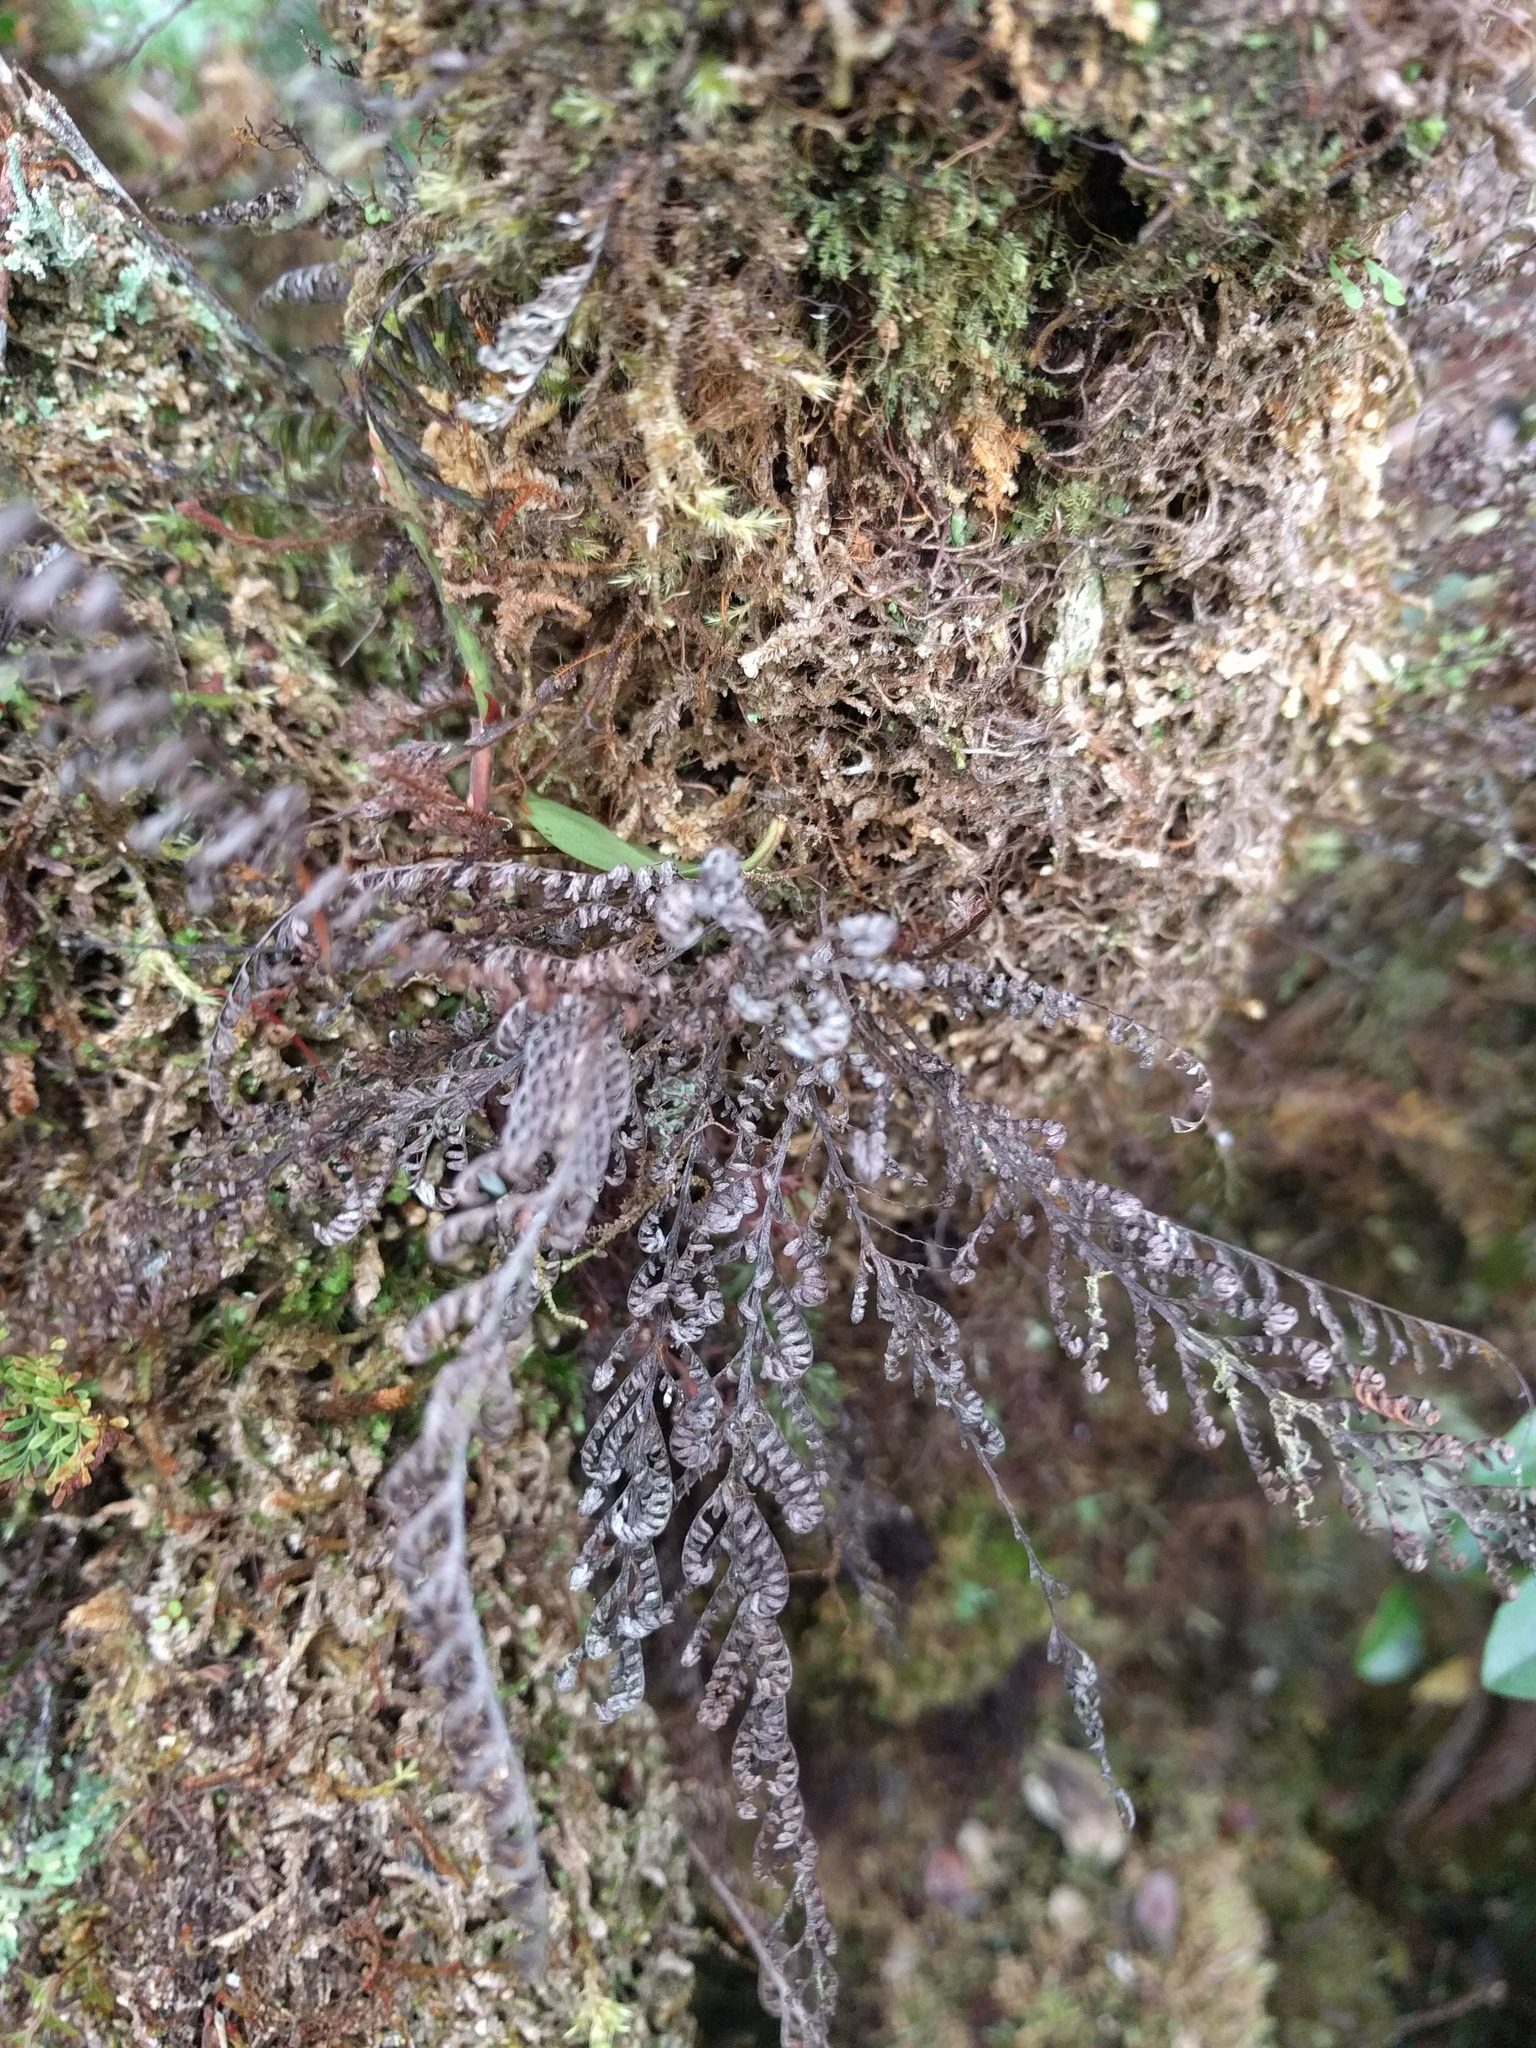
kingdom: Plantae
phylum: Tracheophyta
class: Polypodiopsida
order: Polypodiales
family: Polypodiaceae
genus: Adenophorus
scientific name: Adenophorus tamariscinus
